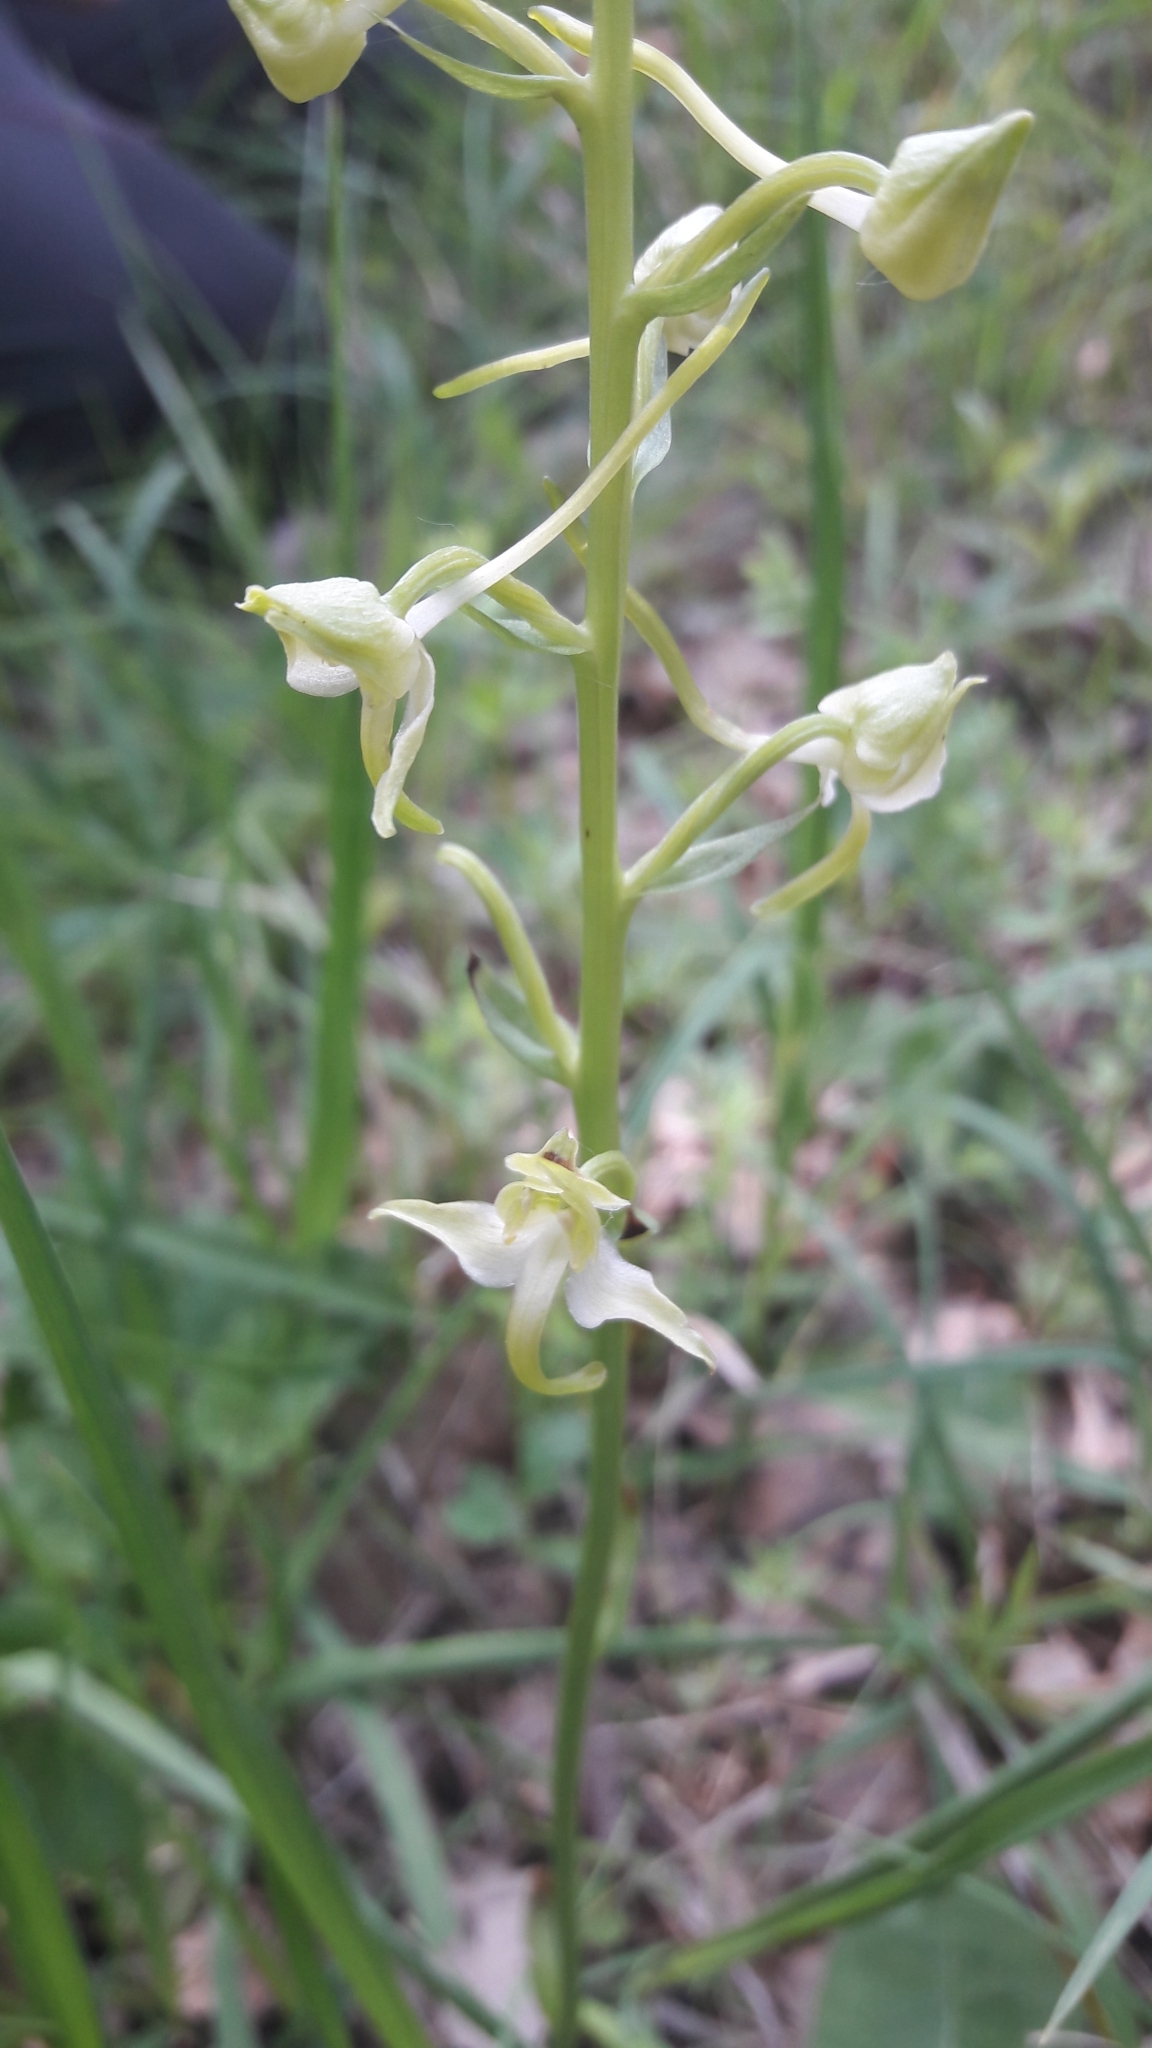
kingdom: Plantae
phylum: Tracheophyta
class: Liliopsida
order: Asparagales
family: Orchidaceae
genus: Platanthera
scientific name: Platanthera chlorantha
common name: Greater butterfly-orchid
